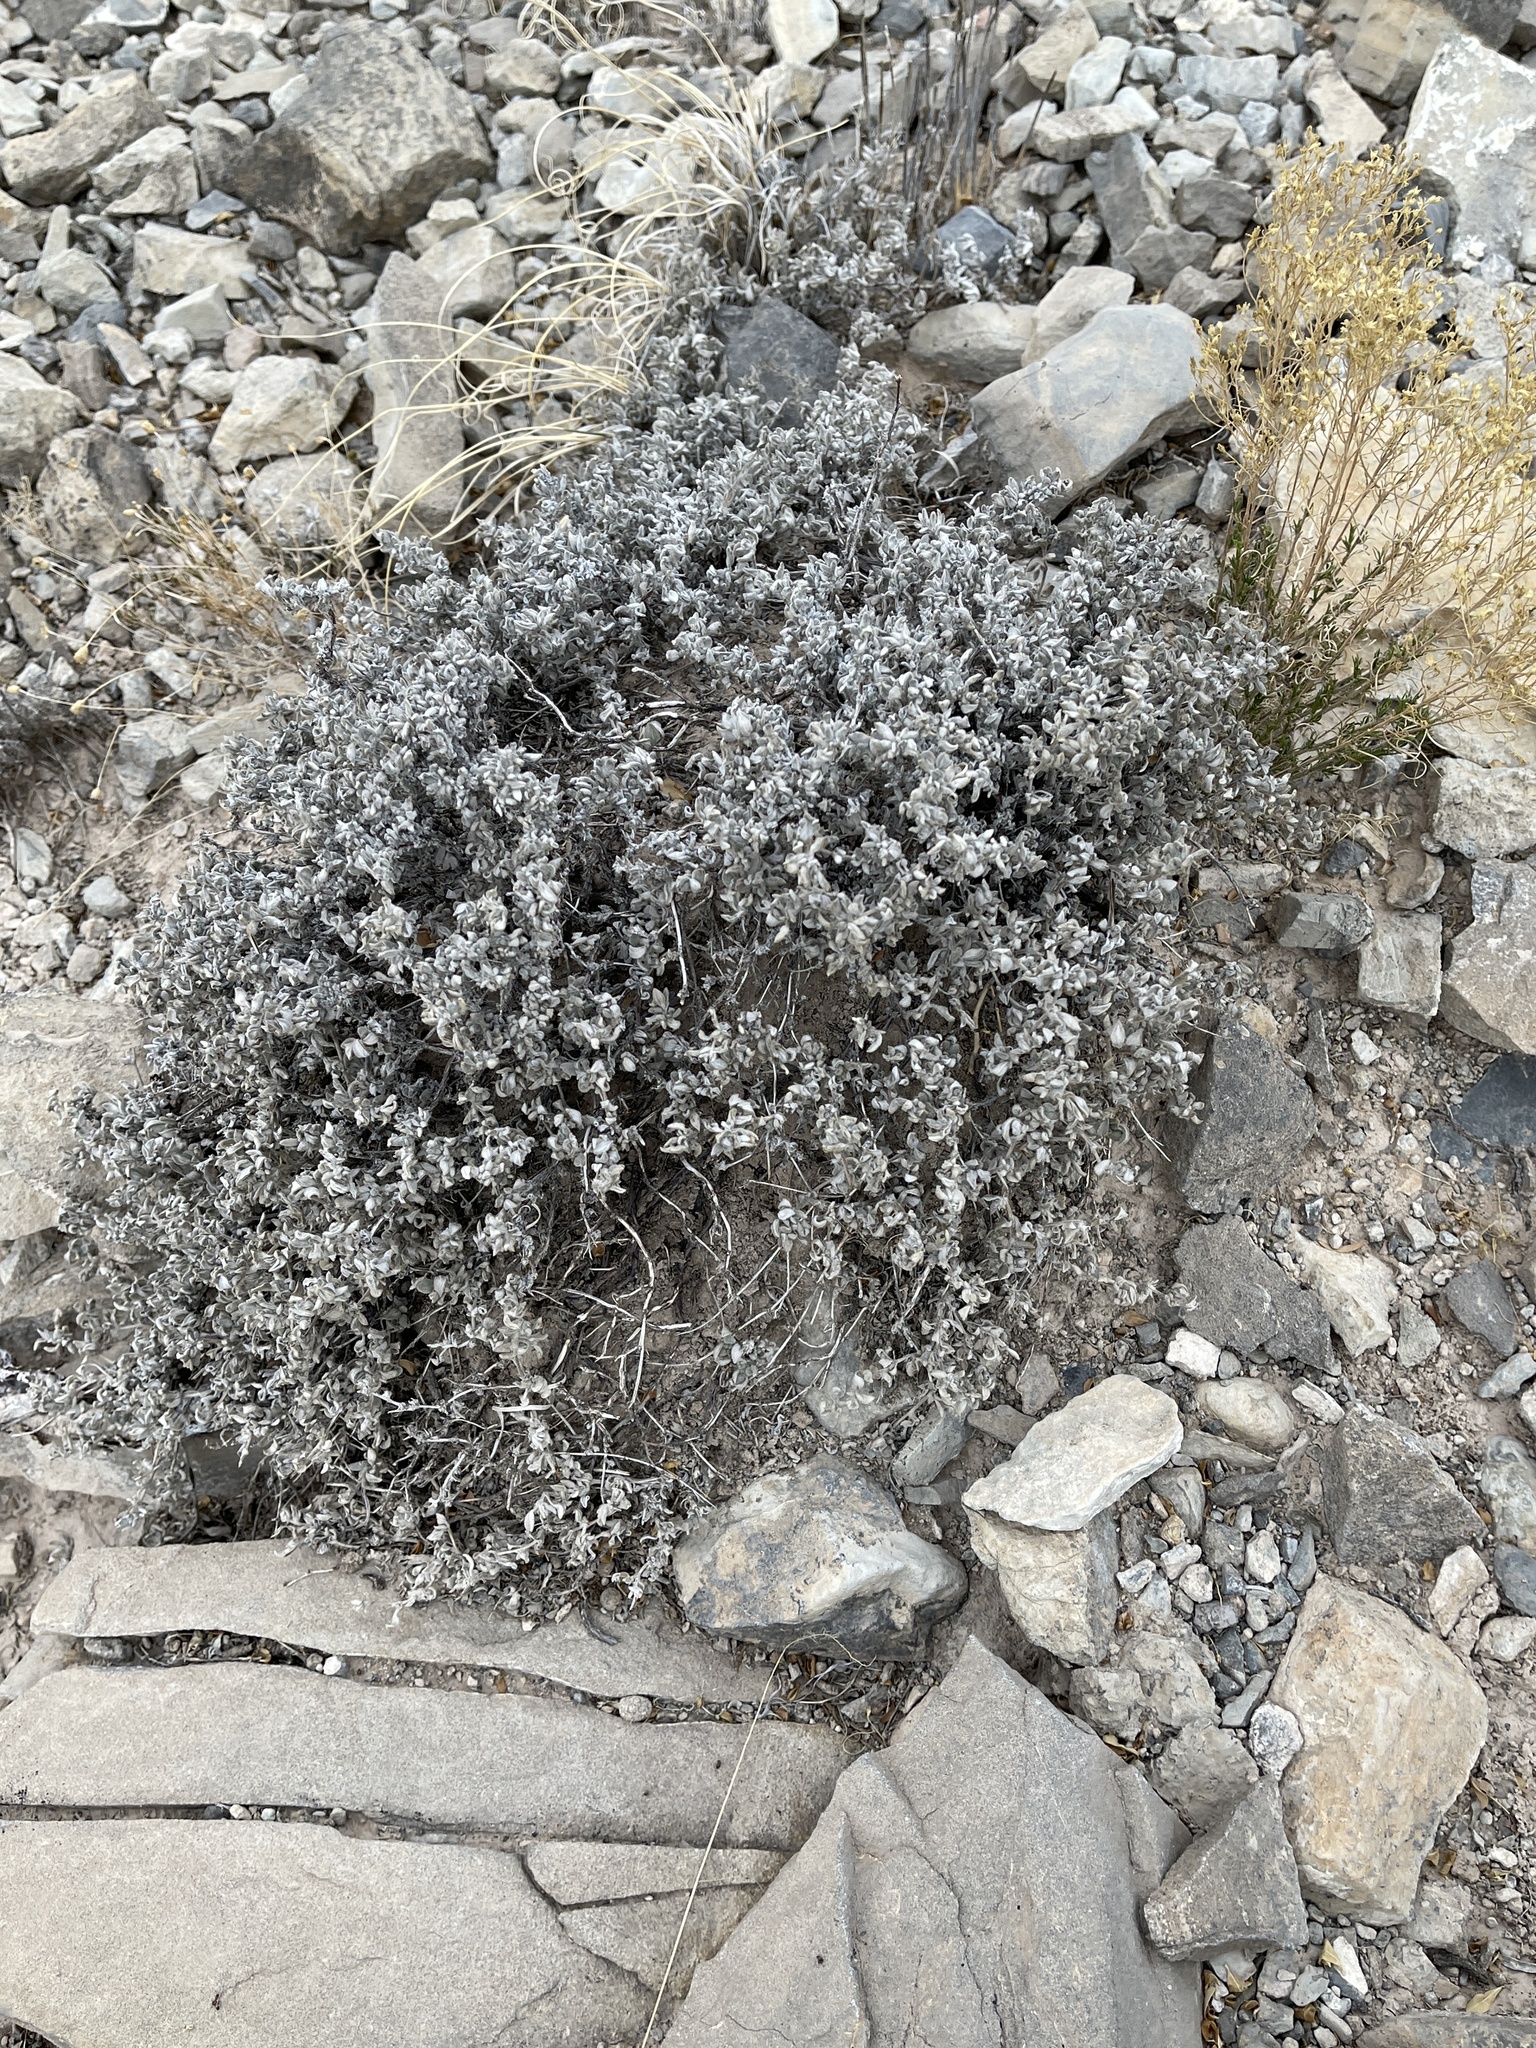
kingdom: Plantae
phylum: Tracheophyta
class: Magnoliopsida
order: Boraginales
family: Ehretiaceae
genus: Tiquilia
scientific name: Tiquilia canescens
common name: Hairy tiquilia
